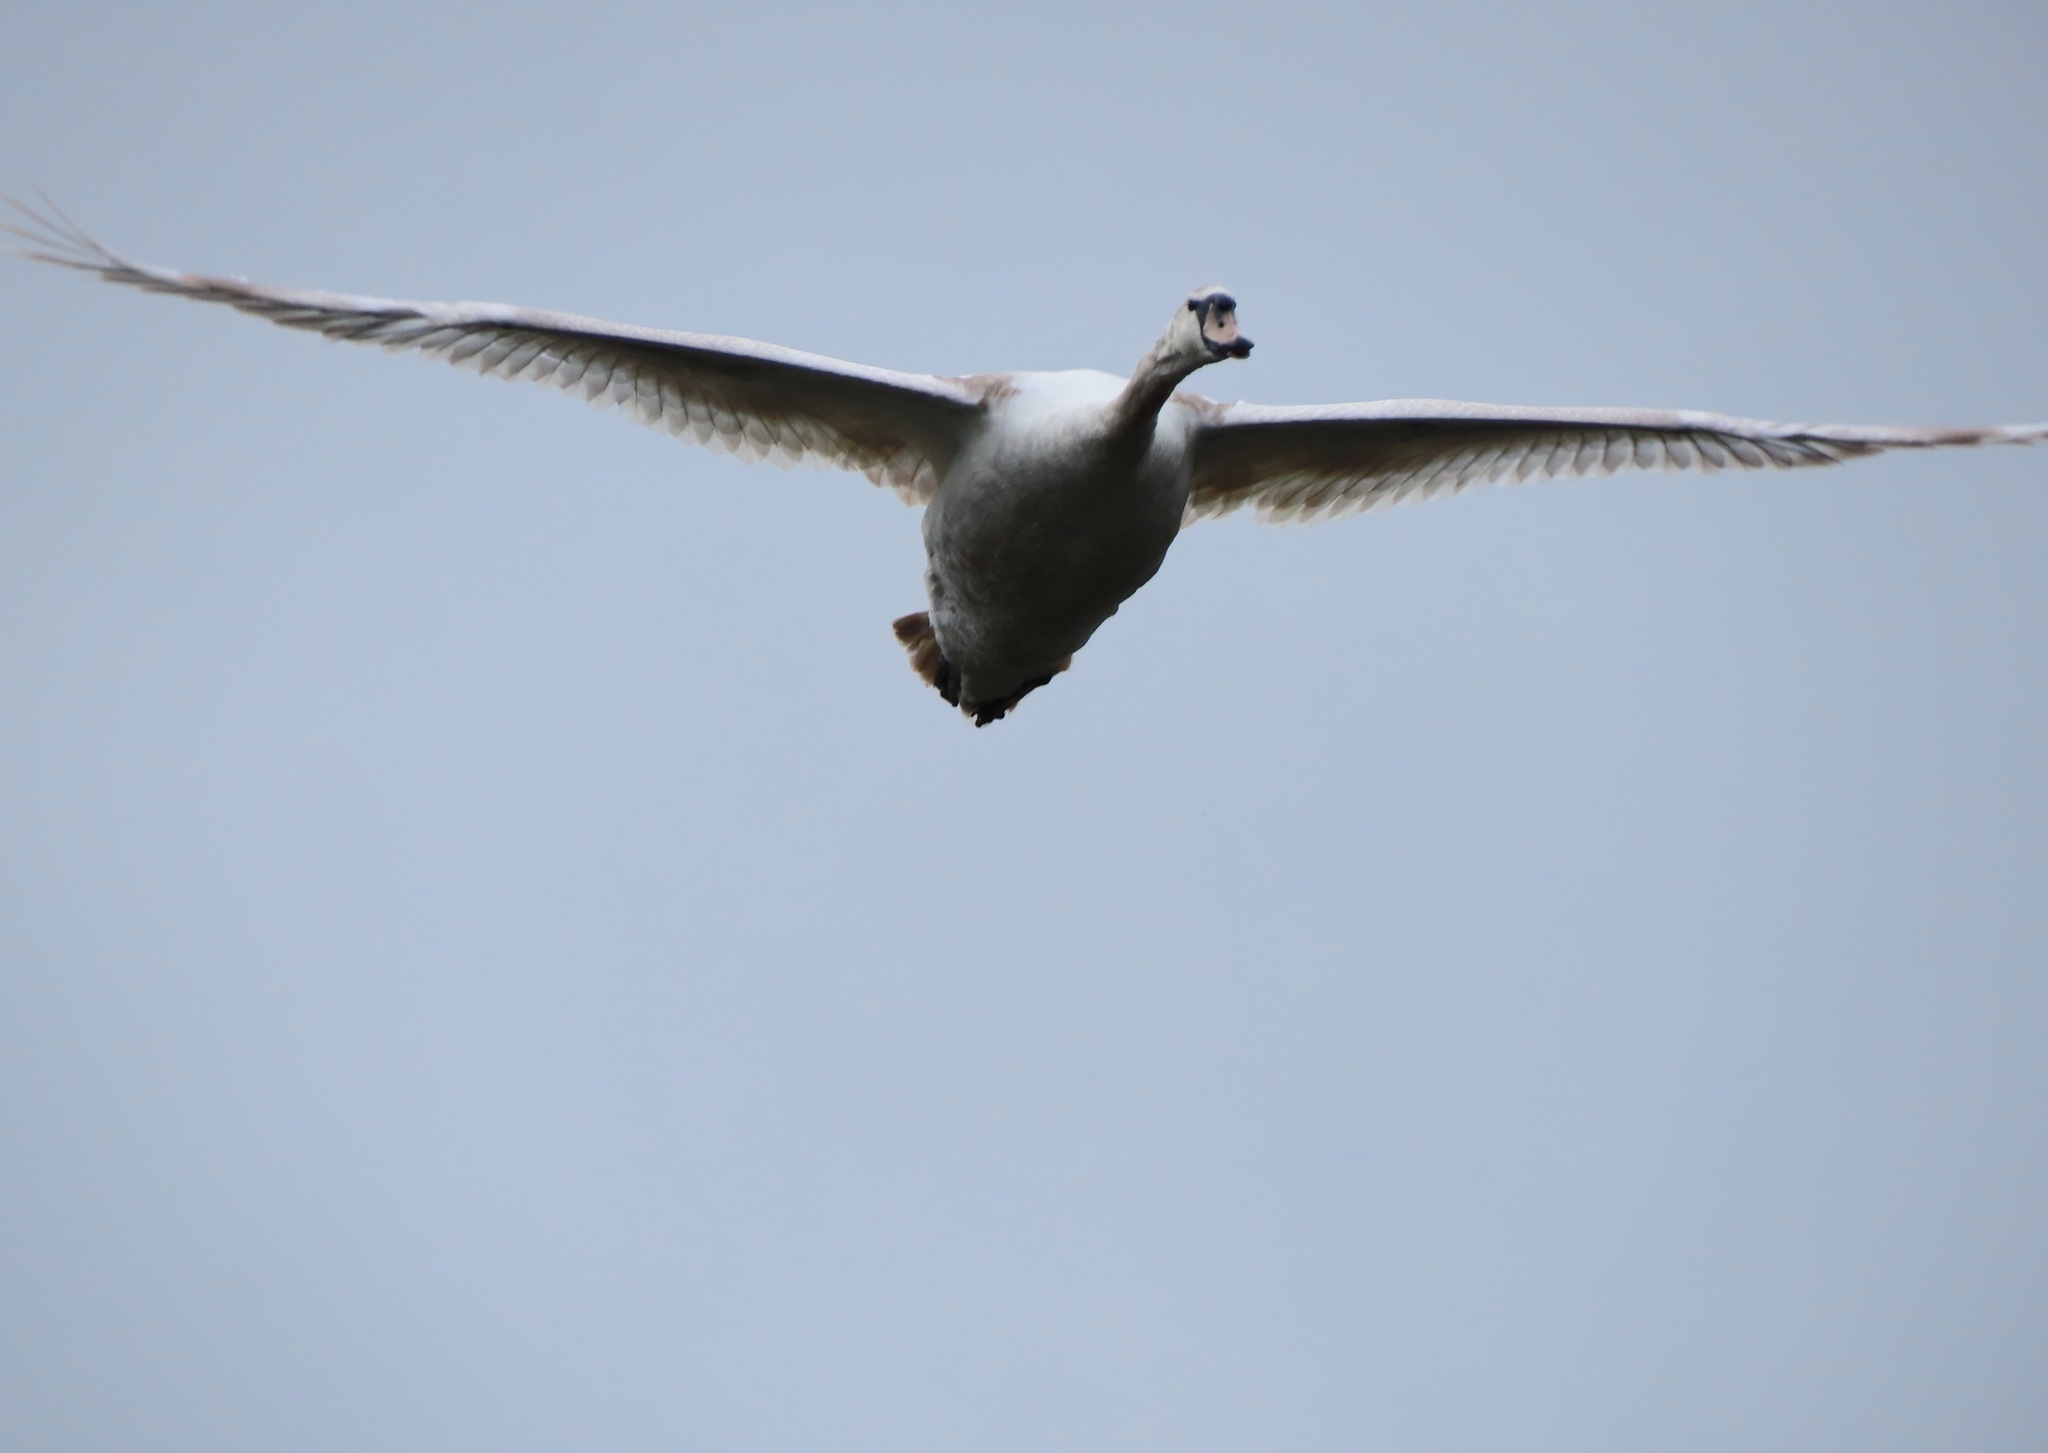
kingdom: Animalia
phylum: Chordata
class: Aves
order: Anseriformes
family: Anatidae
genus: Cygnus
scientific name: Cygnus olor
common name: Mute swan
